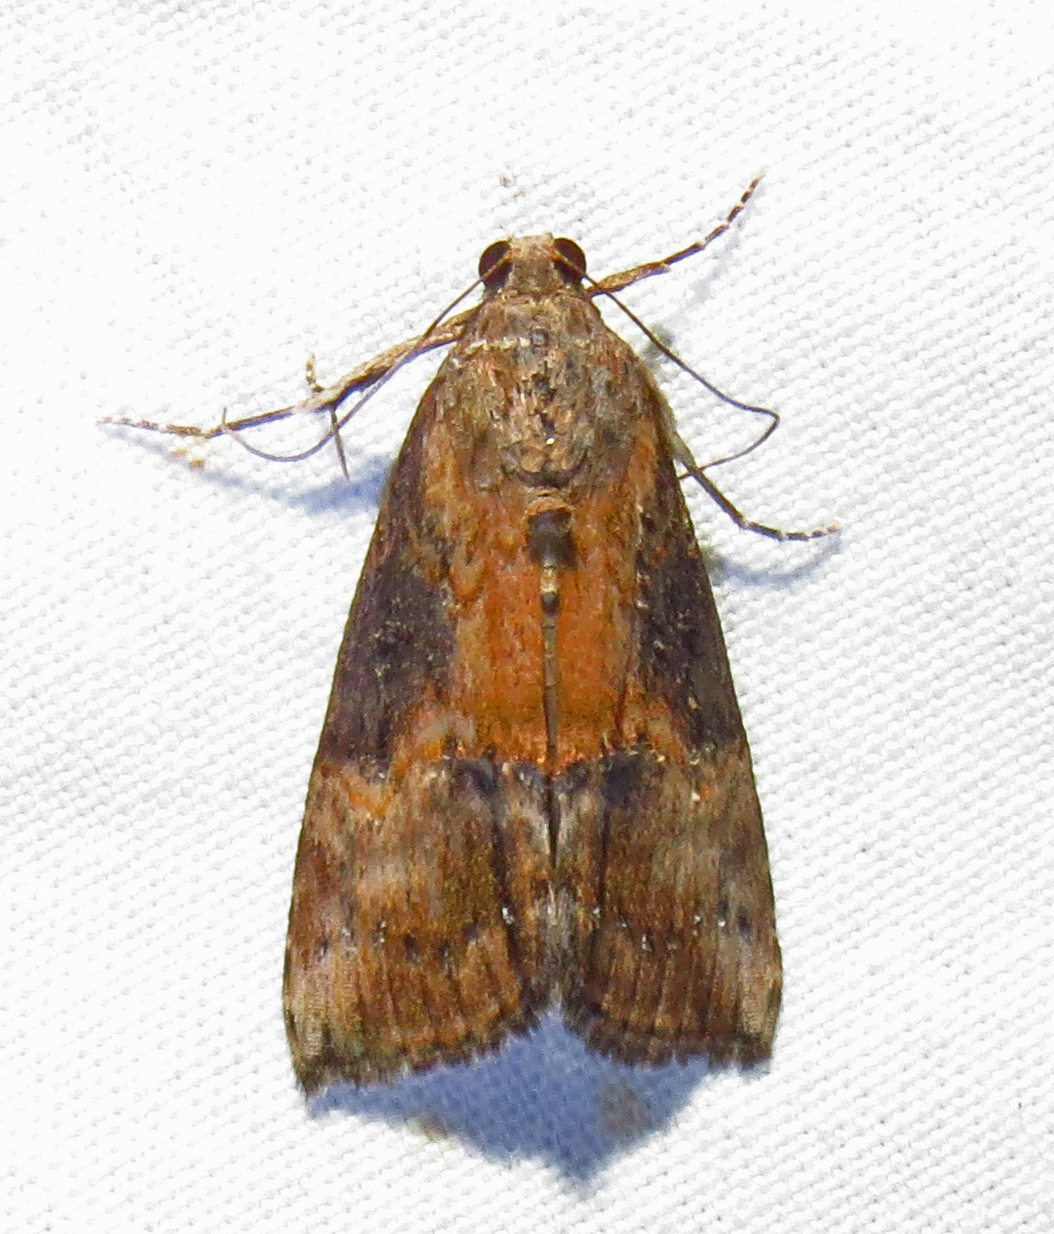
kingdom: Animalia
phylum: Arthropoda
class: Insecta
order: Lepidoptera
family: Erebidae
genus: Hypena
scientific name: Hypena scabra
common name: Green cloverworm
